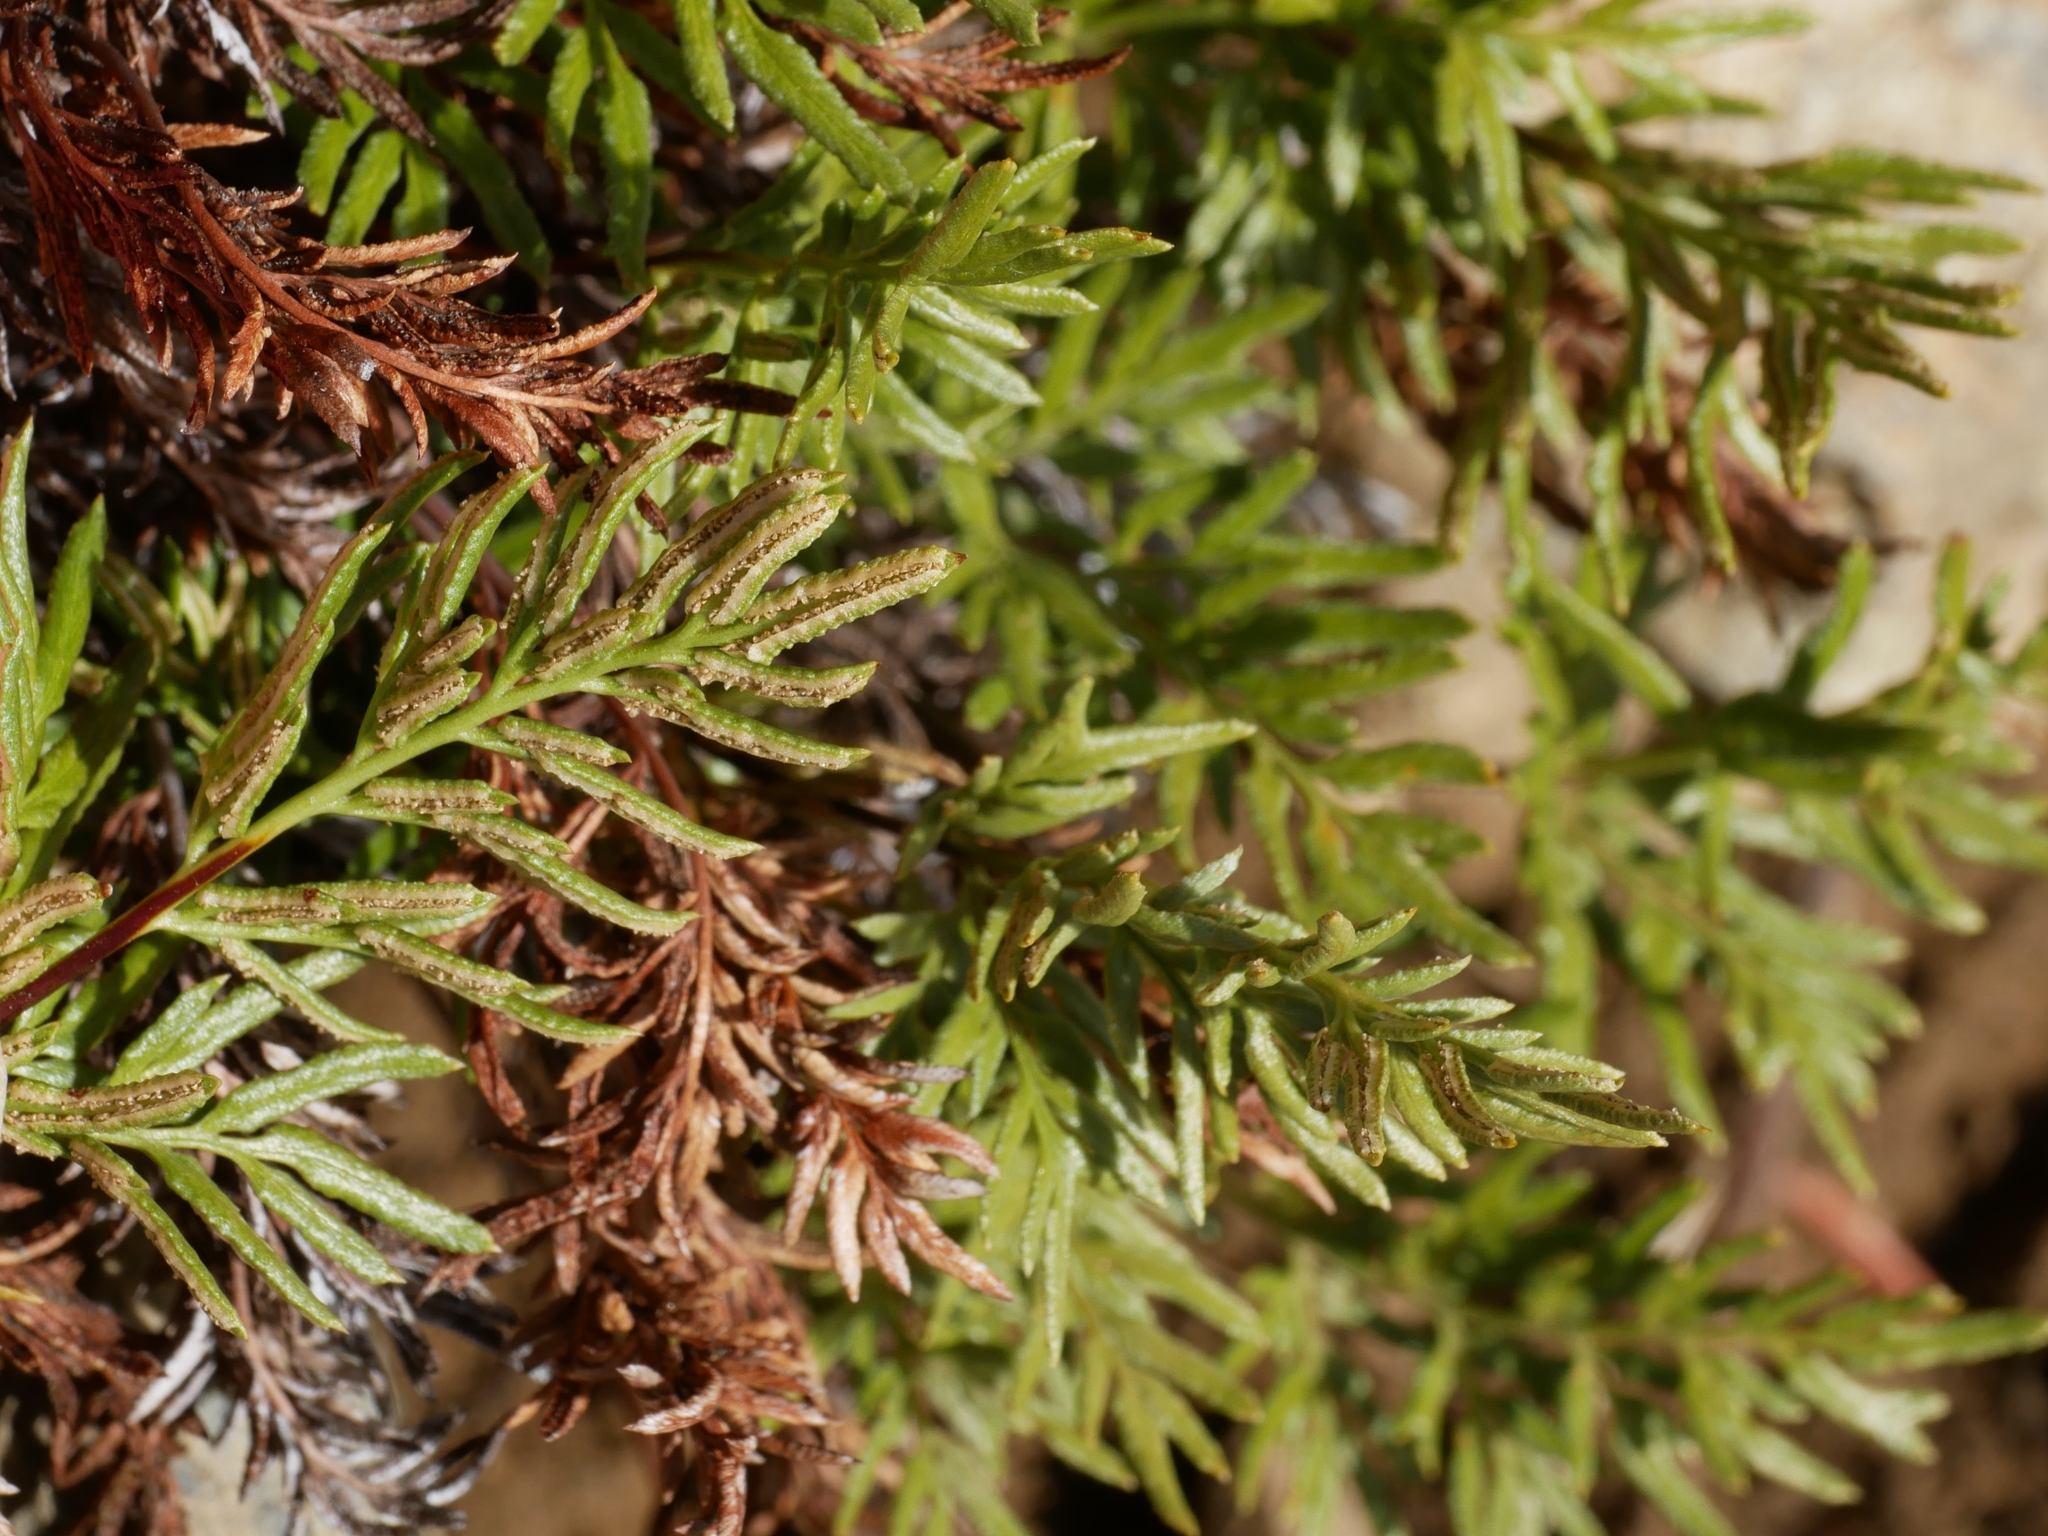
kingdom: Plantae
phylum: Tracheophyta
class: Polypodiopsida
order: Polypodiales
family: Pteridaceae
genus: Aspidotis
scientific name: Aspidotis densa
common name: Indian's dream
